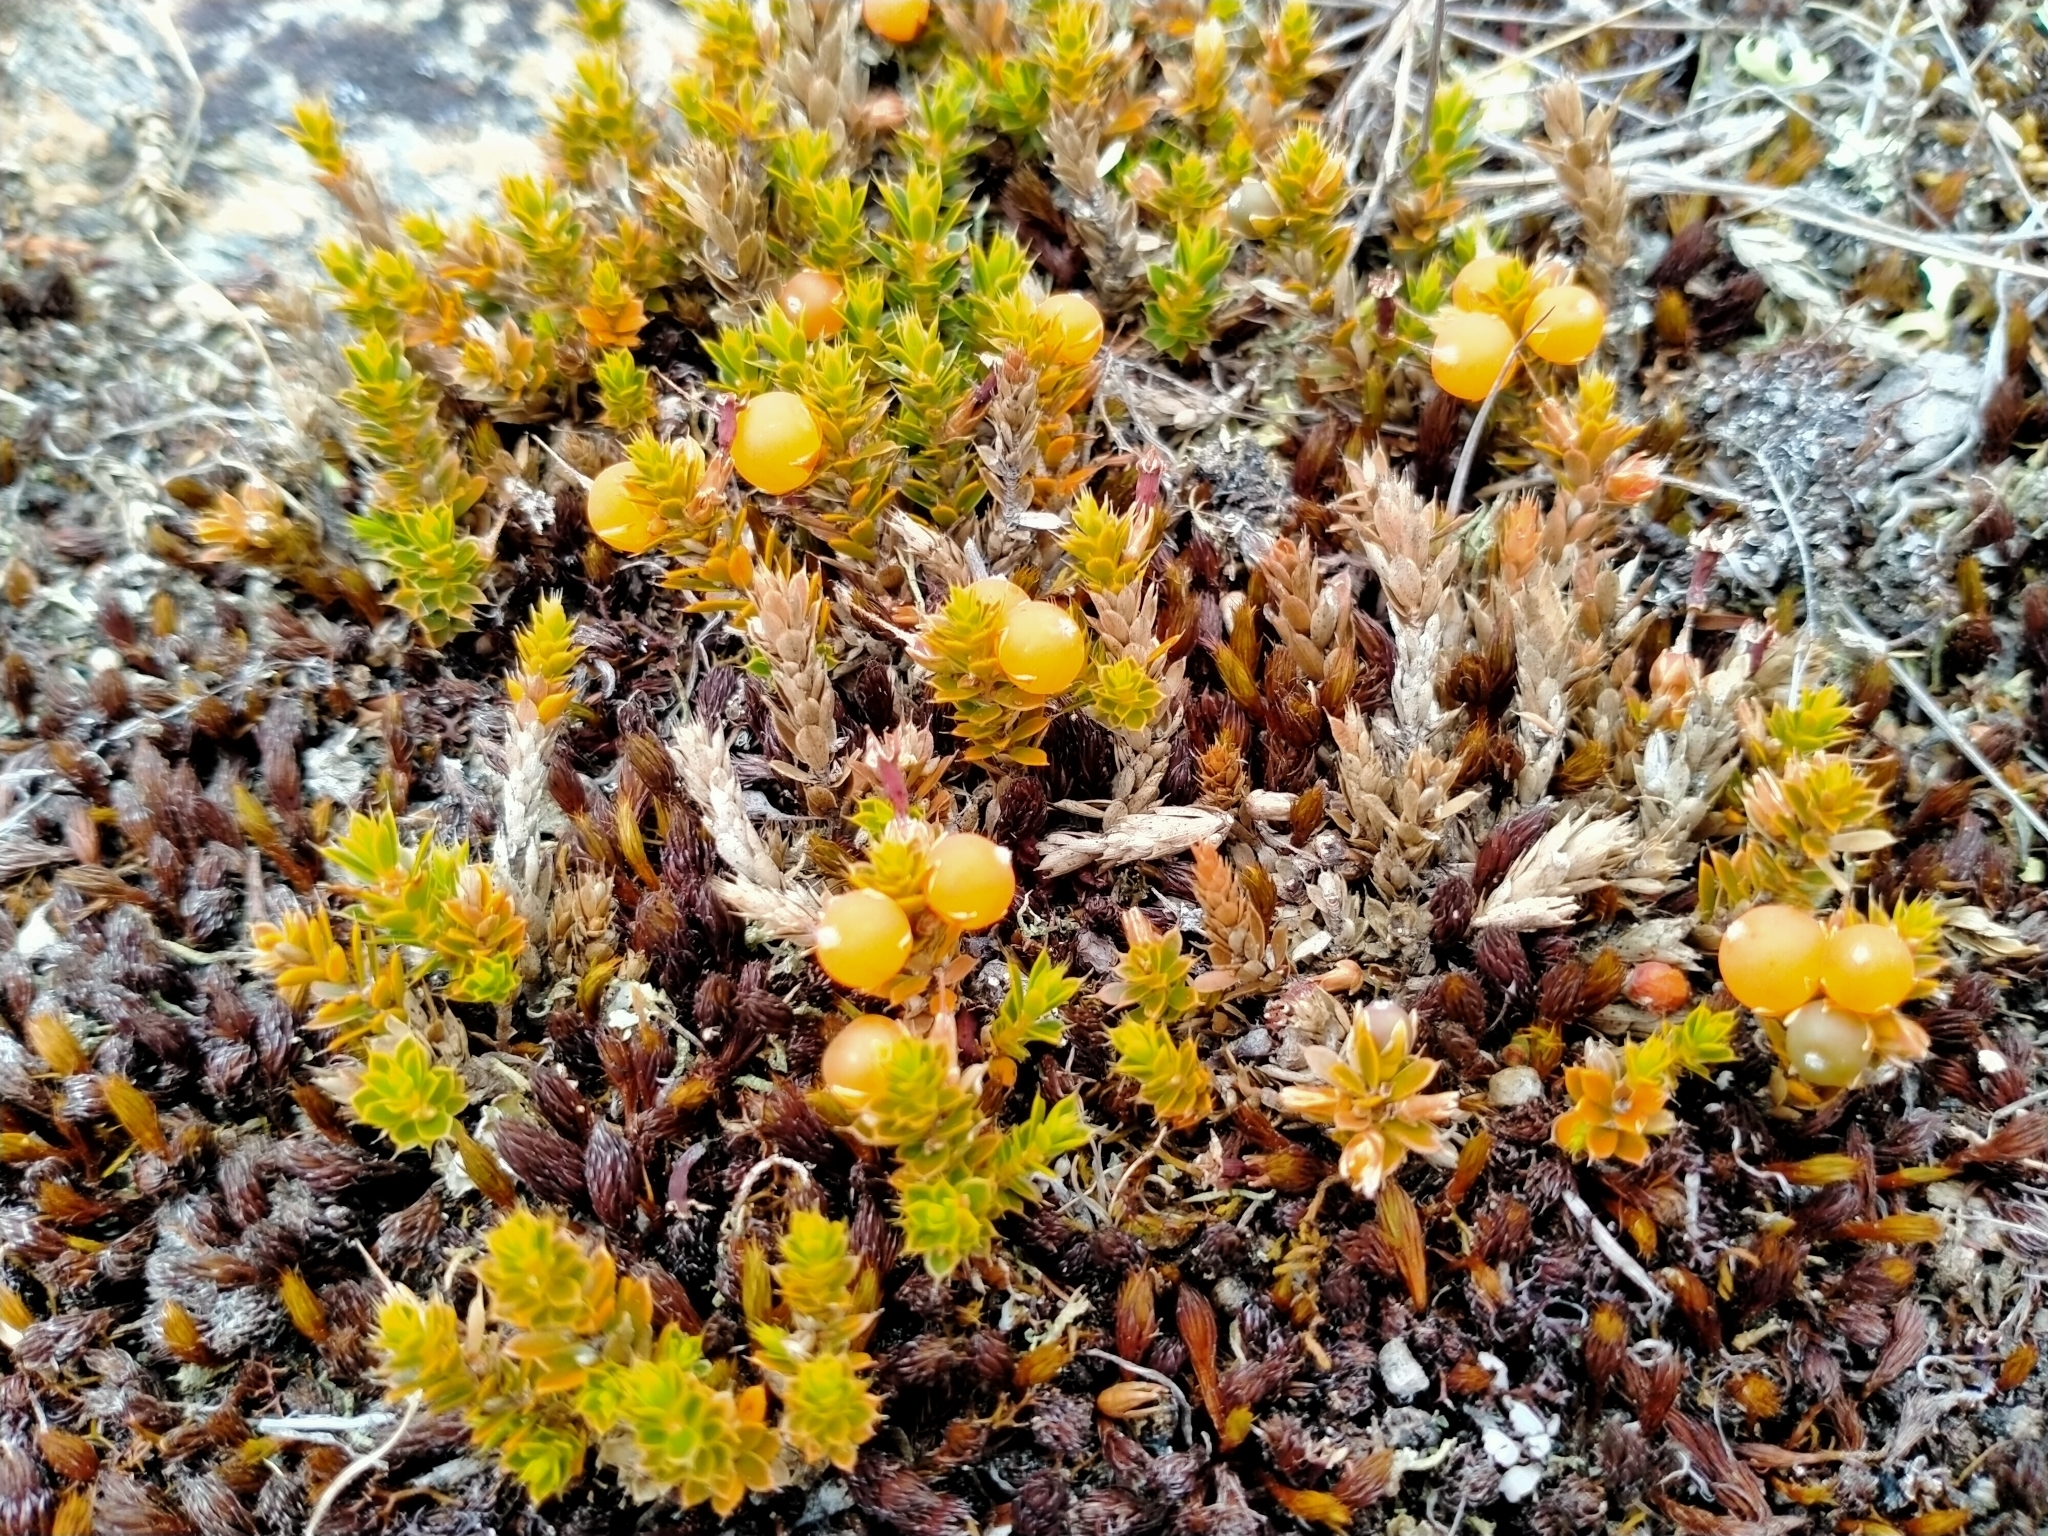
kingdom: Plantae
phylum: Tracheophyta
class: Magnoliopsida
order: Ericales
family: Ericaceae
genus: Styphelia
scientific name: Styphelia nesophila
